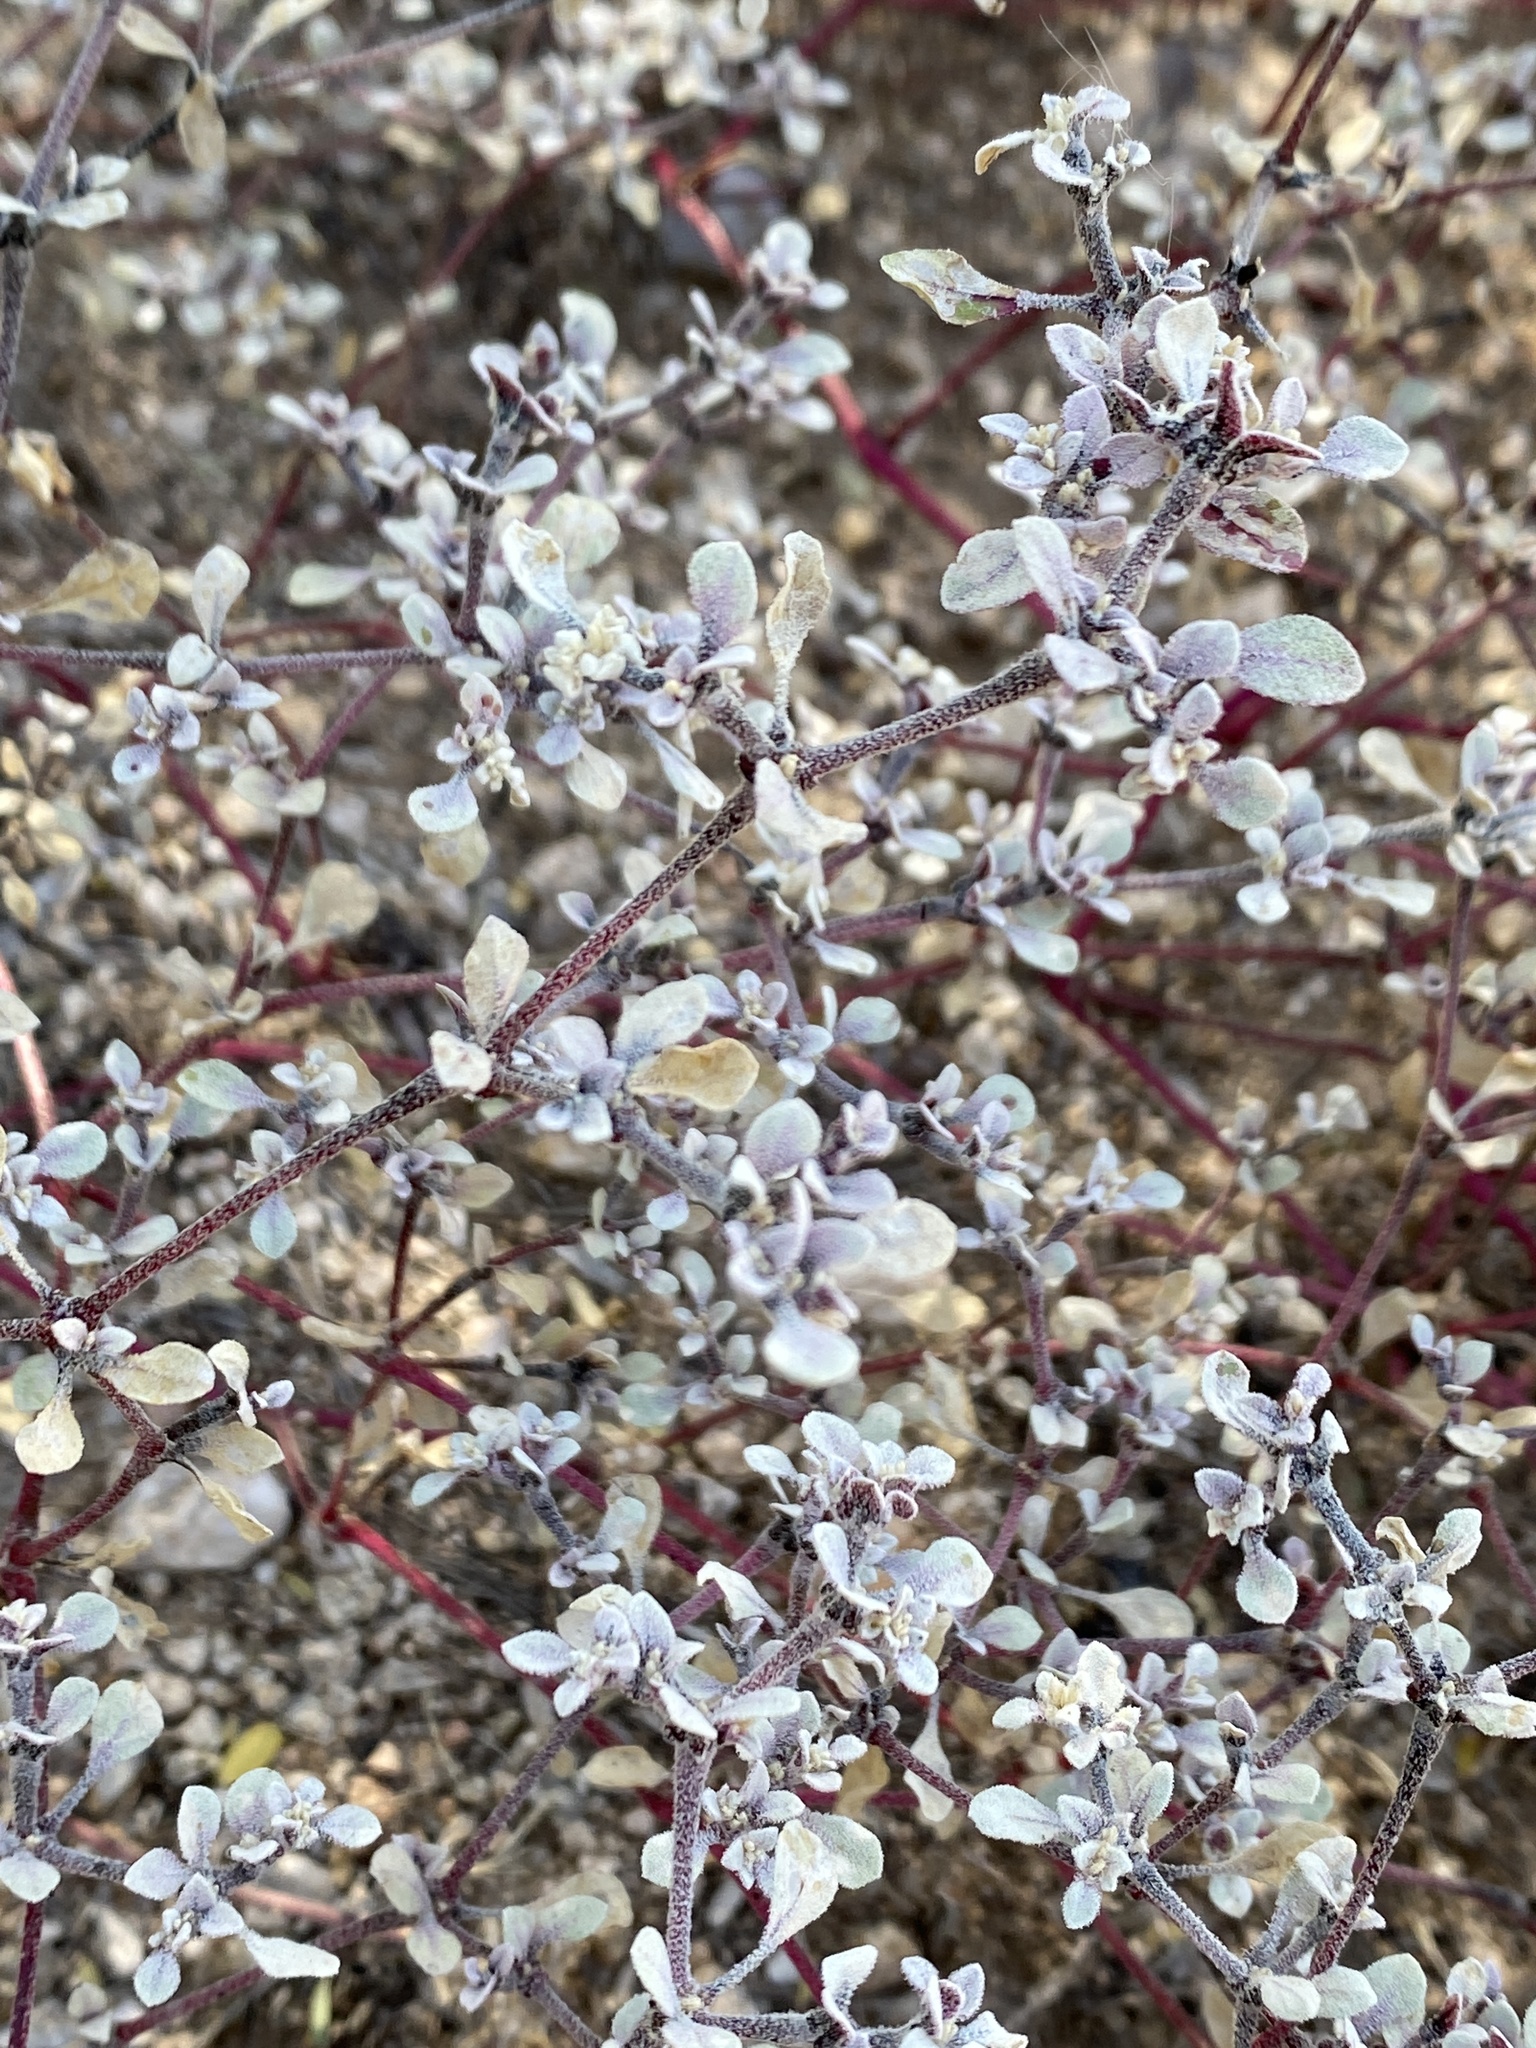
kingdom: Plantae
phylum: Tracheophyta
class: Magnoliopsida
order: Caryophyllales
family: Amaranthaceae
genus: Tidestromia
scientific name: Tidestromia lanuginosa
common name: Woolly tidestromia
